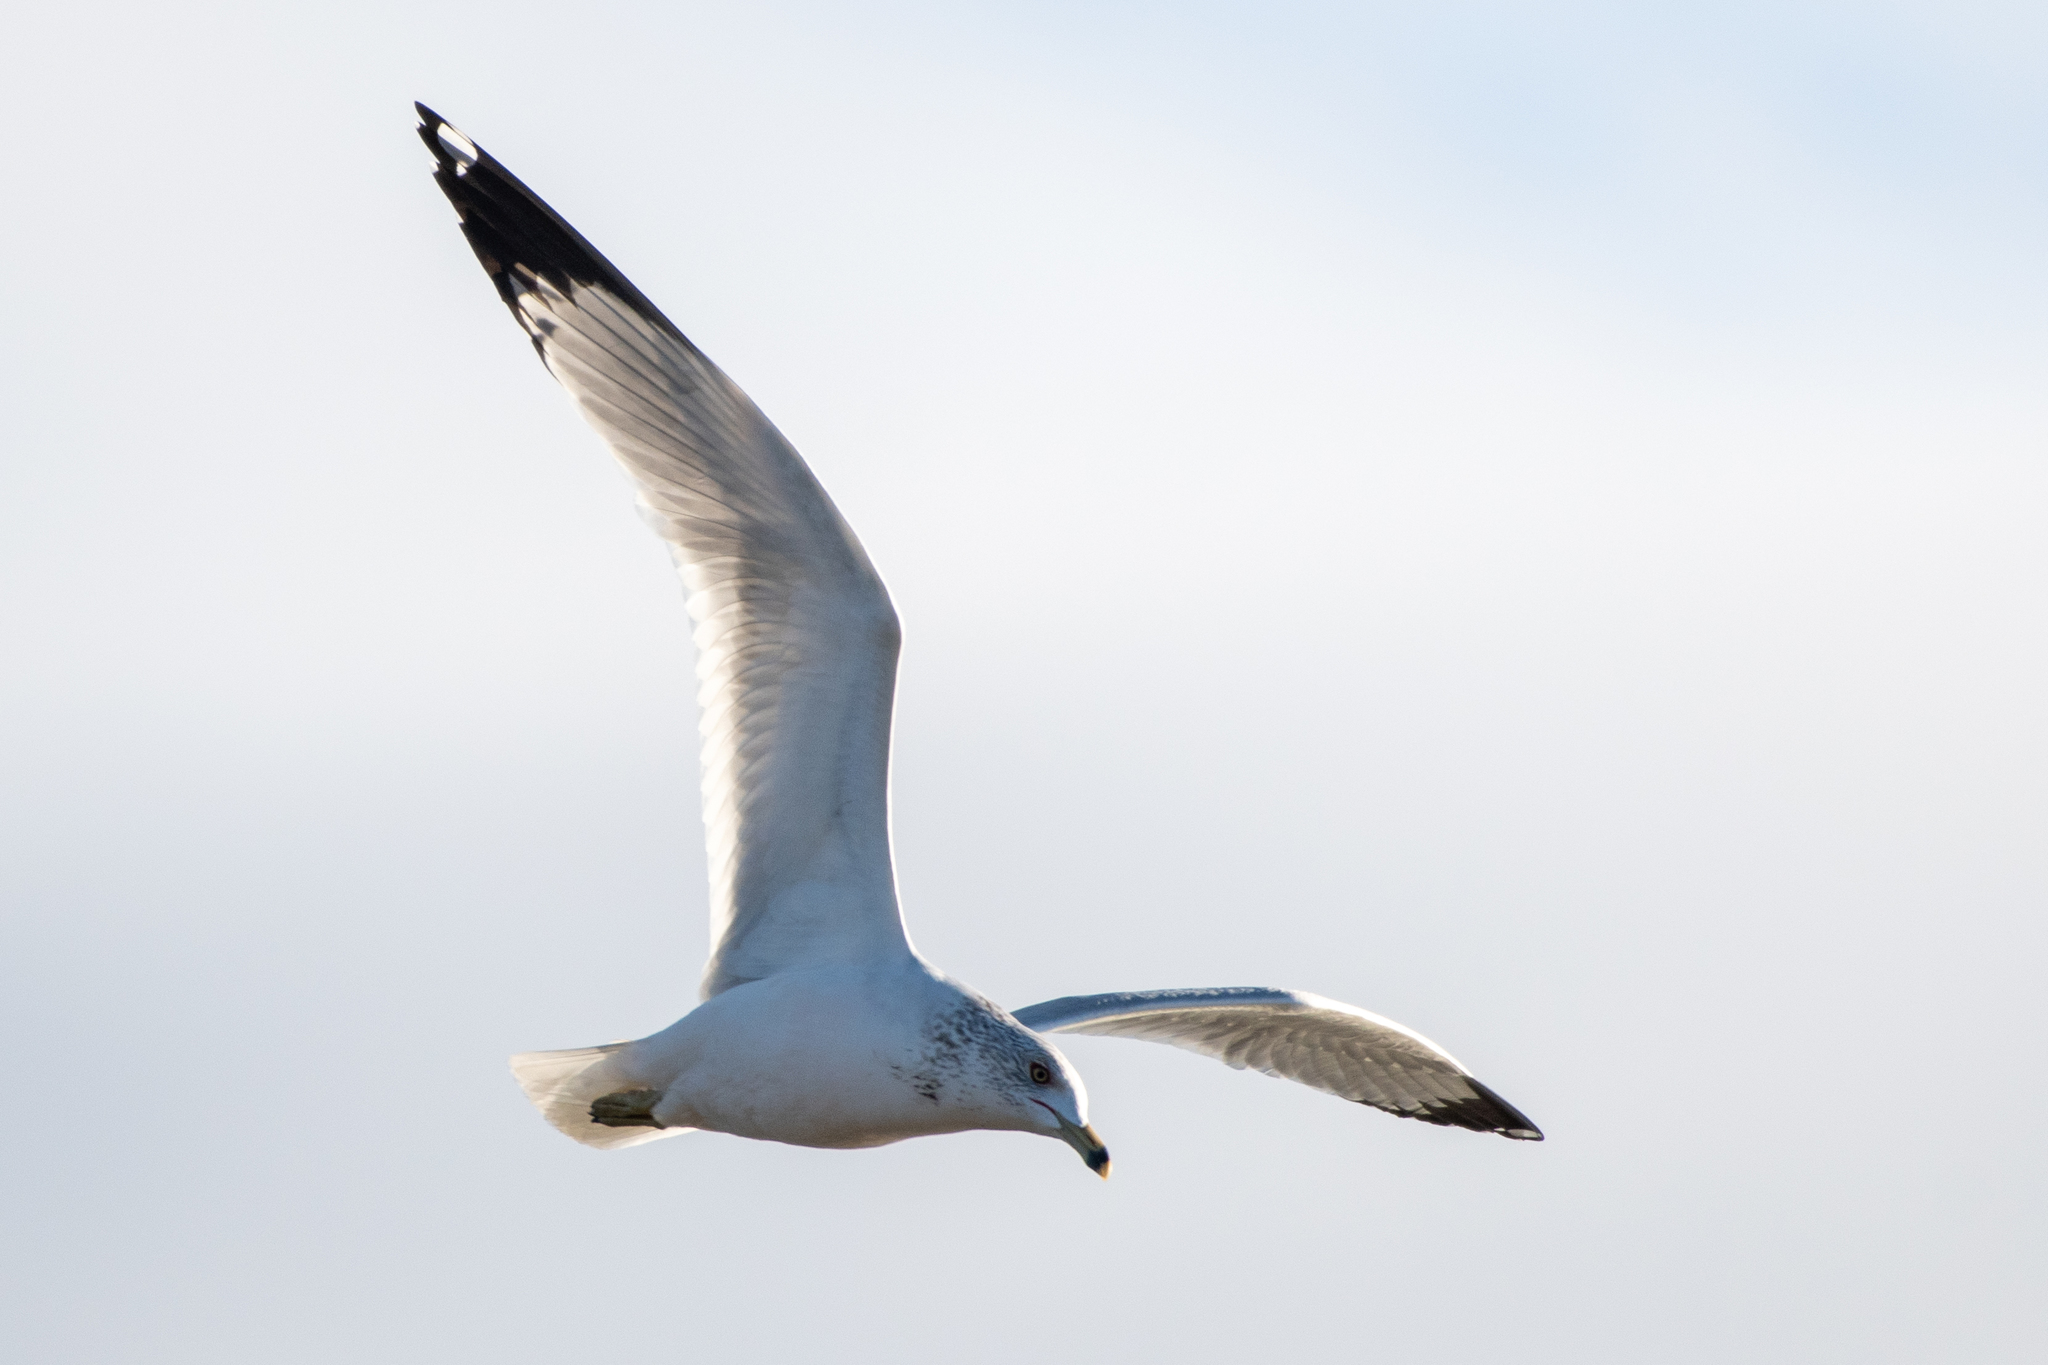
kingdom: Animalia
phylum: Chordata
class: Aves
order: Charadriiformes
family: Laridae
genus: Larus
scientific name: Larus delawarensis
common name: Ring-billed gull
